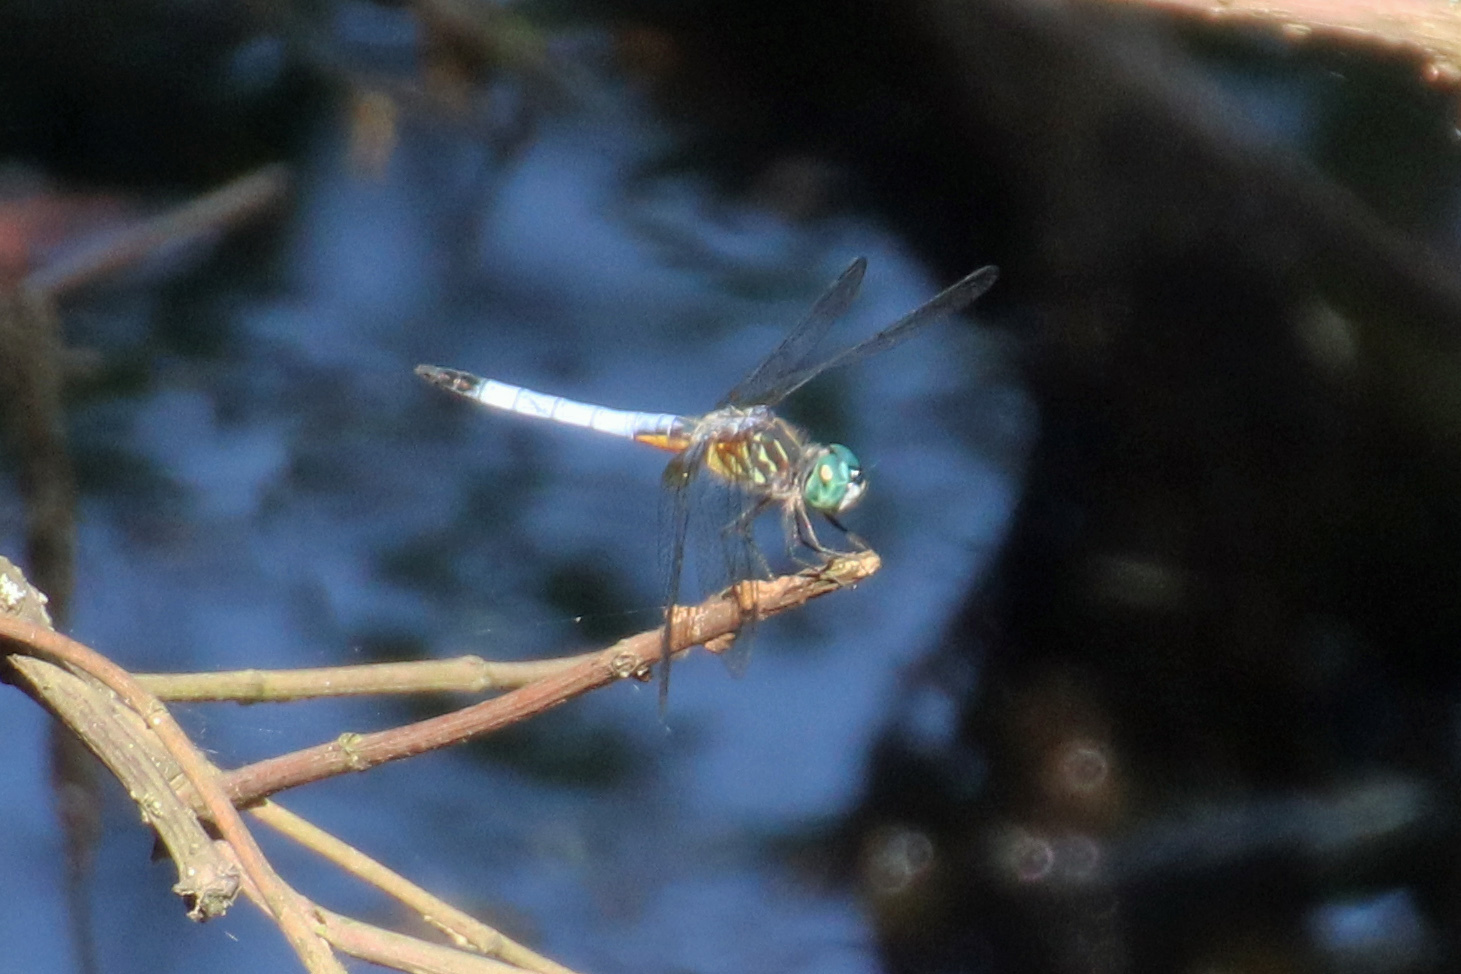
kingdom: Animalia
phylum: Arthropoda
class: Insecta
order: Odonata
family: Libellulidae
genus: Pachydiplax
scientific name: Pachydiplax longipennis
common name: Blue dasher
